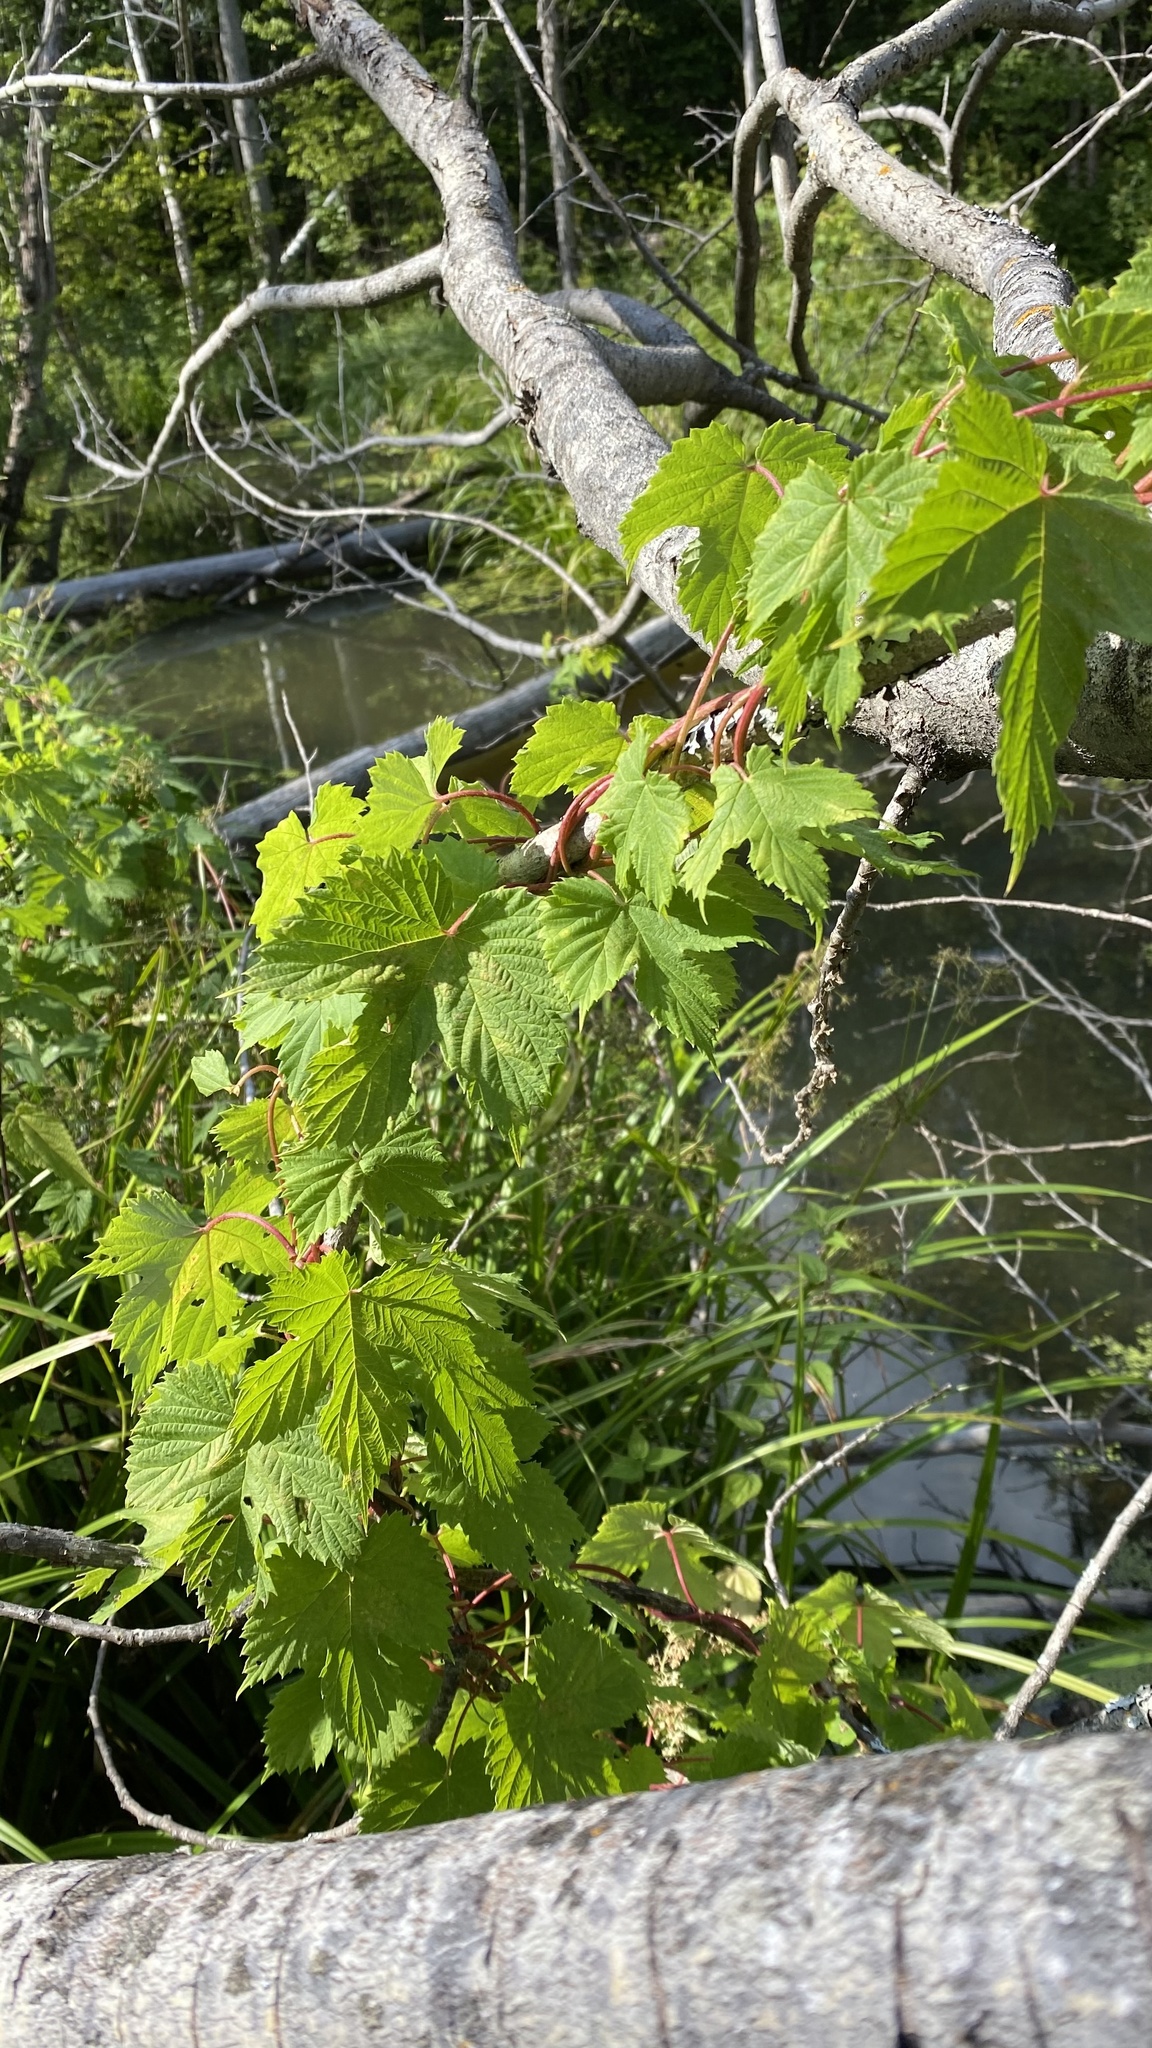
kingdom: Plantae
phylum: Tracheophyta
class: Magnoliopsida
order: Rosales
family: Cannabaceae
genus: Humulus
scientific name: Humulus lupulus
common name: Hop
